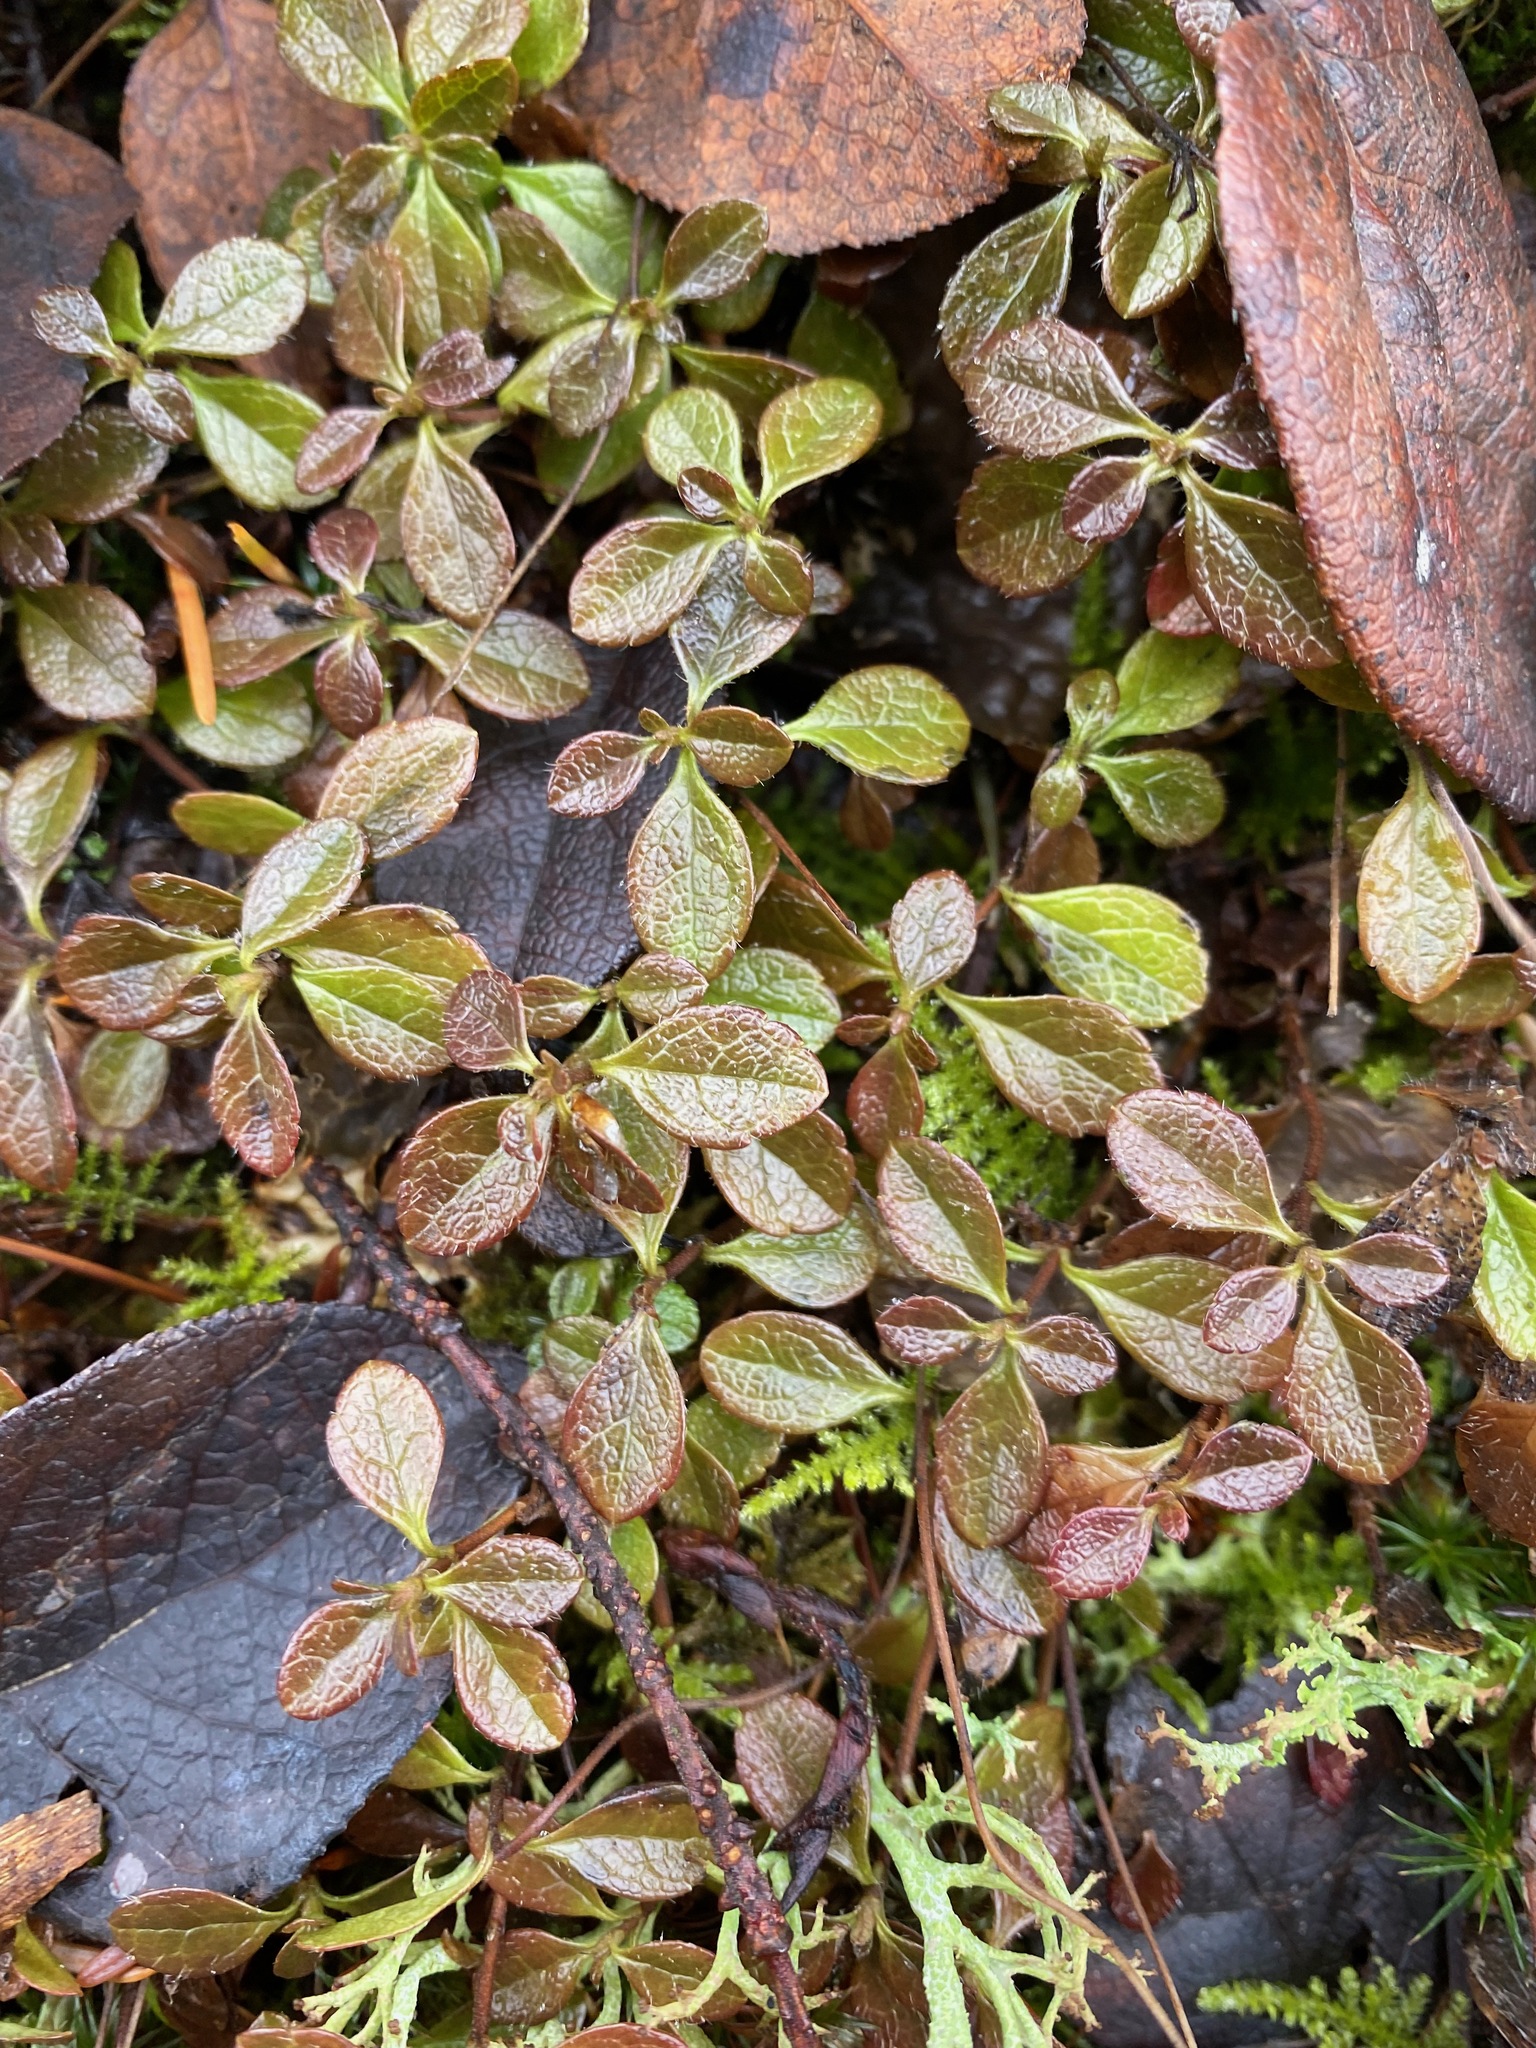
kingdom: Plantae
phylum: Tracheophyta
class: Magnoliopsida
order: Dipsacales
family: Caprifoliaceae
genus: Linnaea
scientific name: Linnaea borealis
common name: Twinflower
